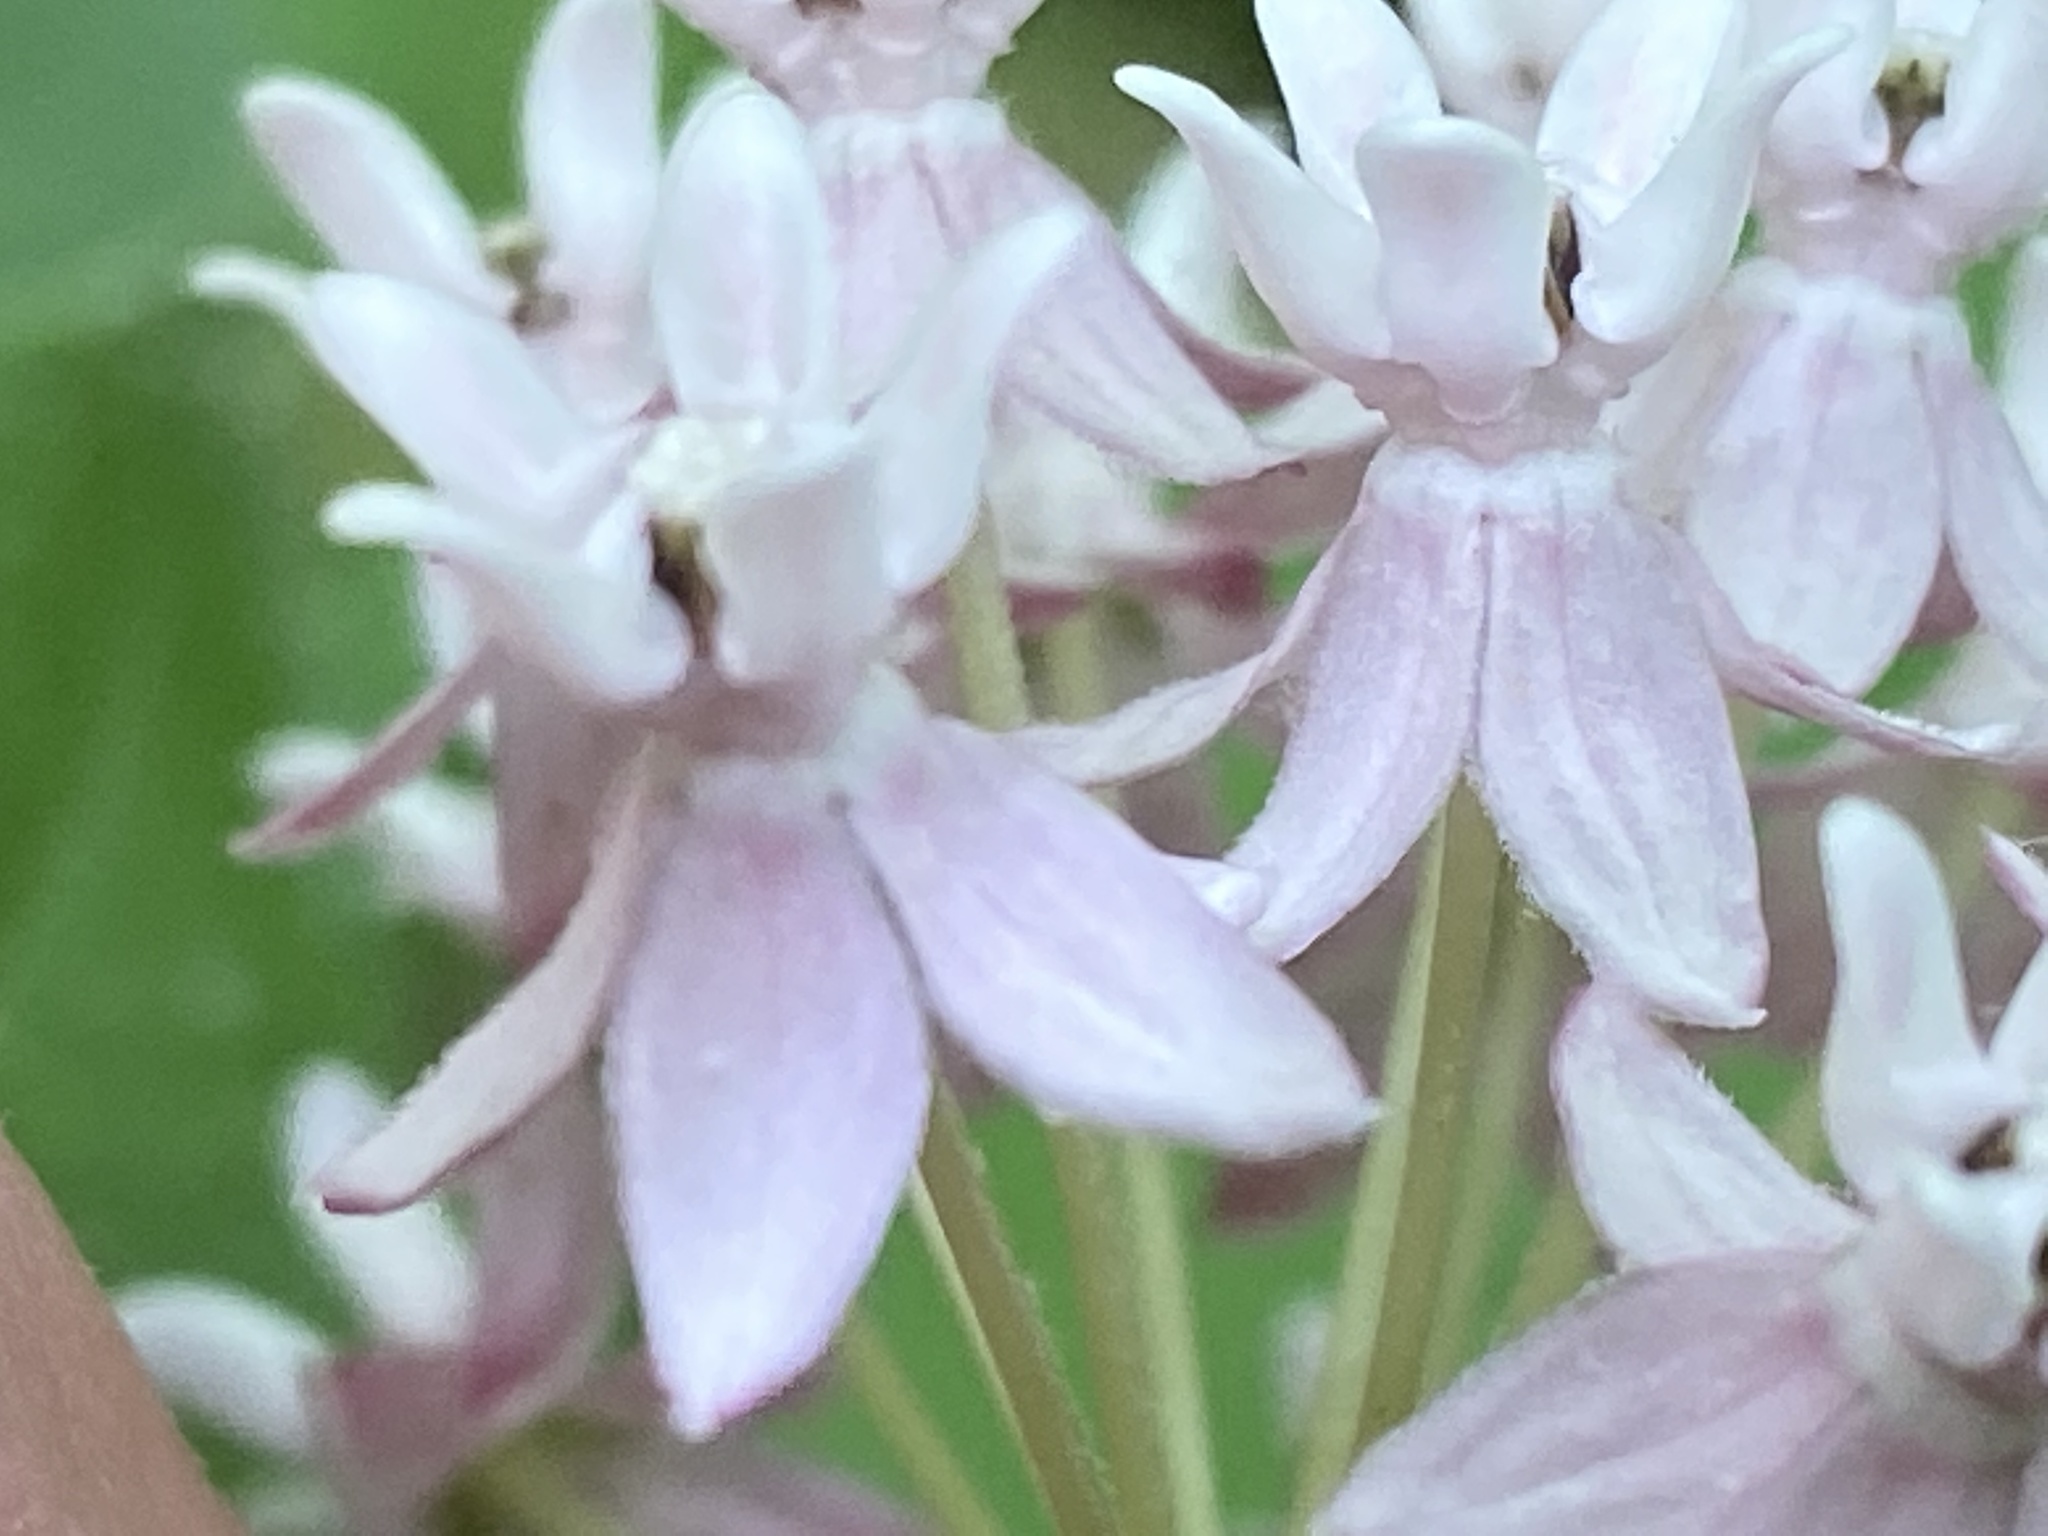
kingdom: Plantae
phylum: Tracheophyta
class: Magnoliopsida
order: Gentianales
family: Apocynaceae
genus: Asclepias
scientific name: Asclepias quadrifolia
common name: Whorled milkweed
